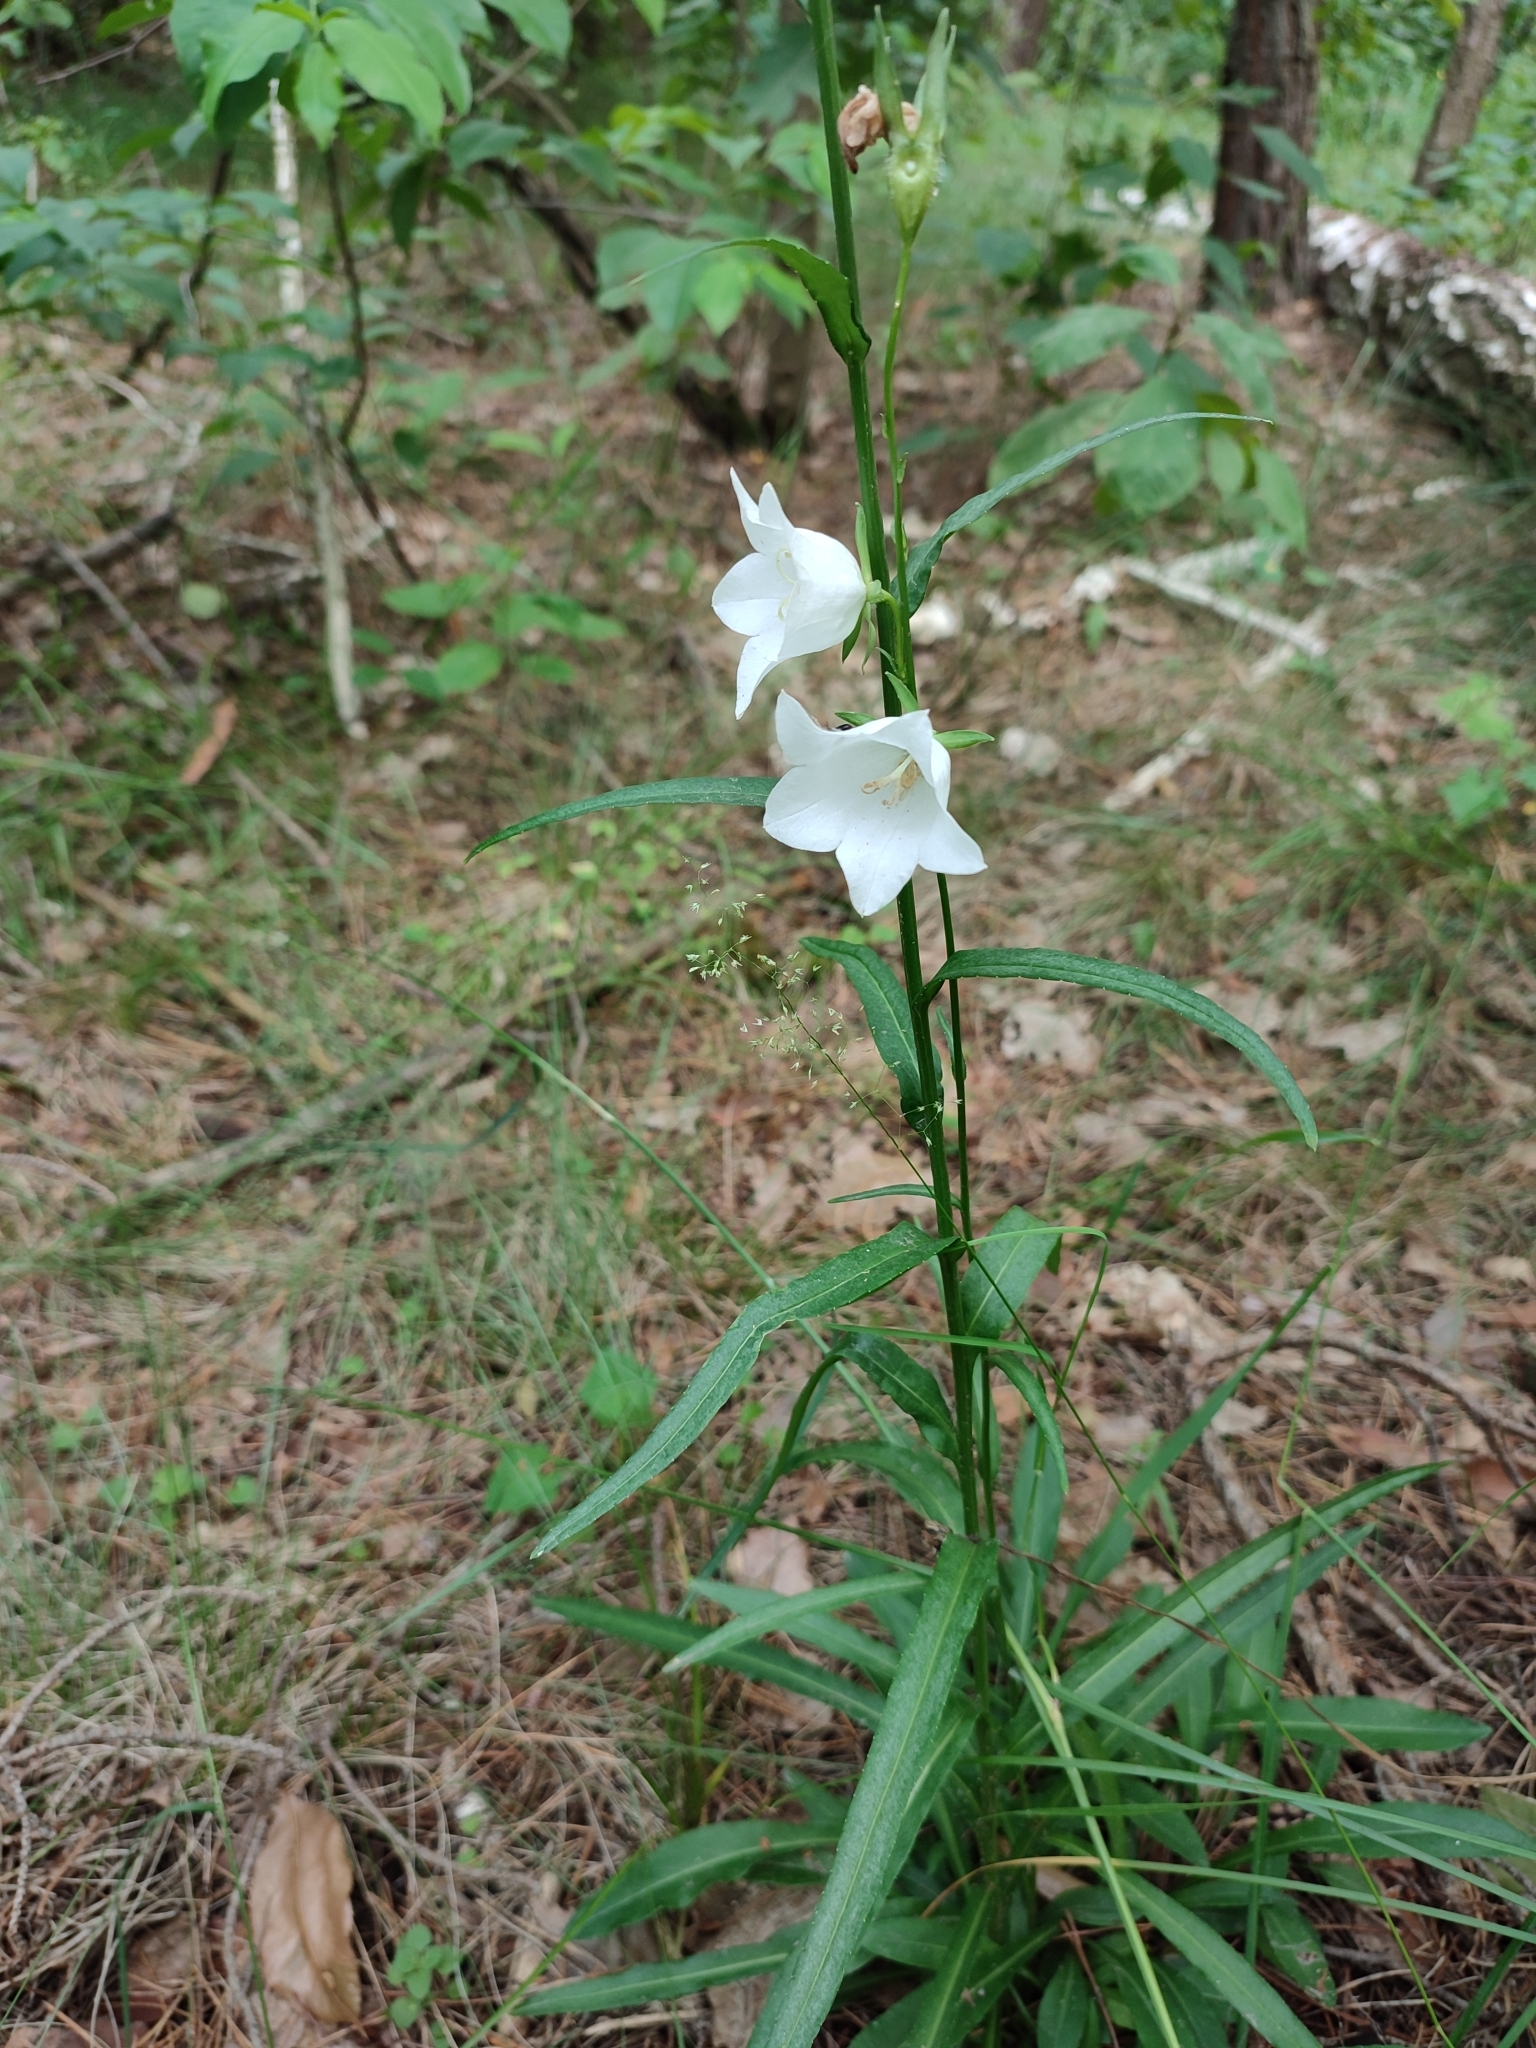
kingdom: Plantae
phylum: Tracheophyta
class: Magnoliopsida
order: Asterales
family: Campanulaceae
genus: Campanula
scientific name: Campanula persicifolia
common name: Peach-leaved bellflower
